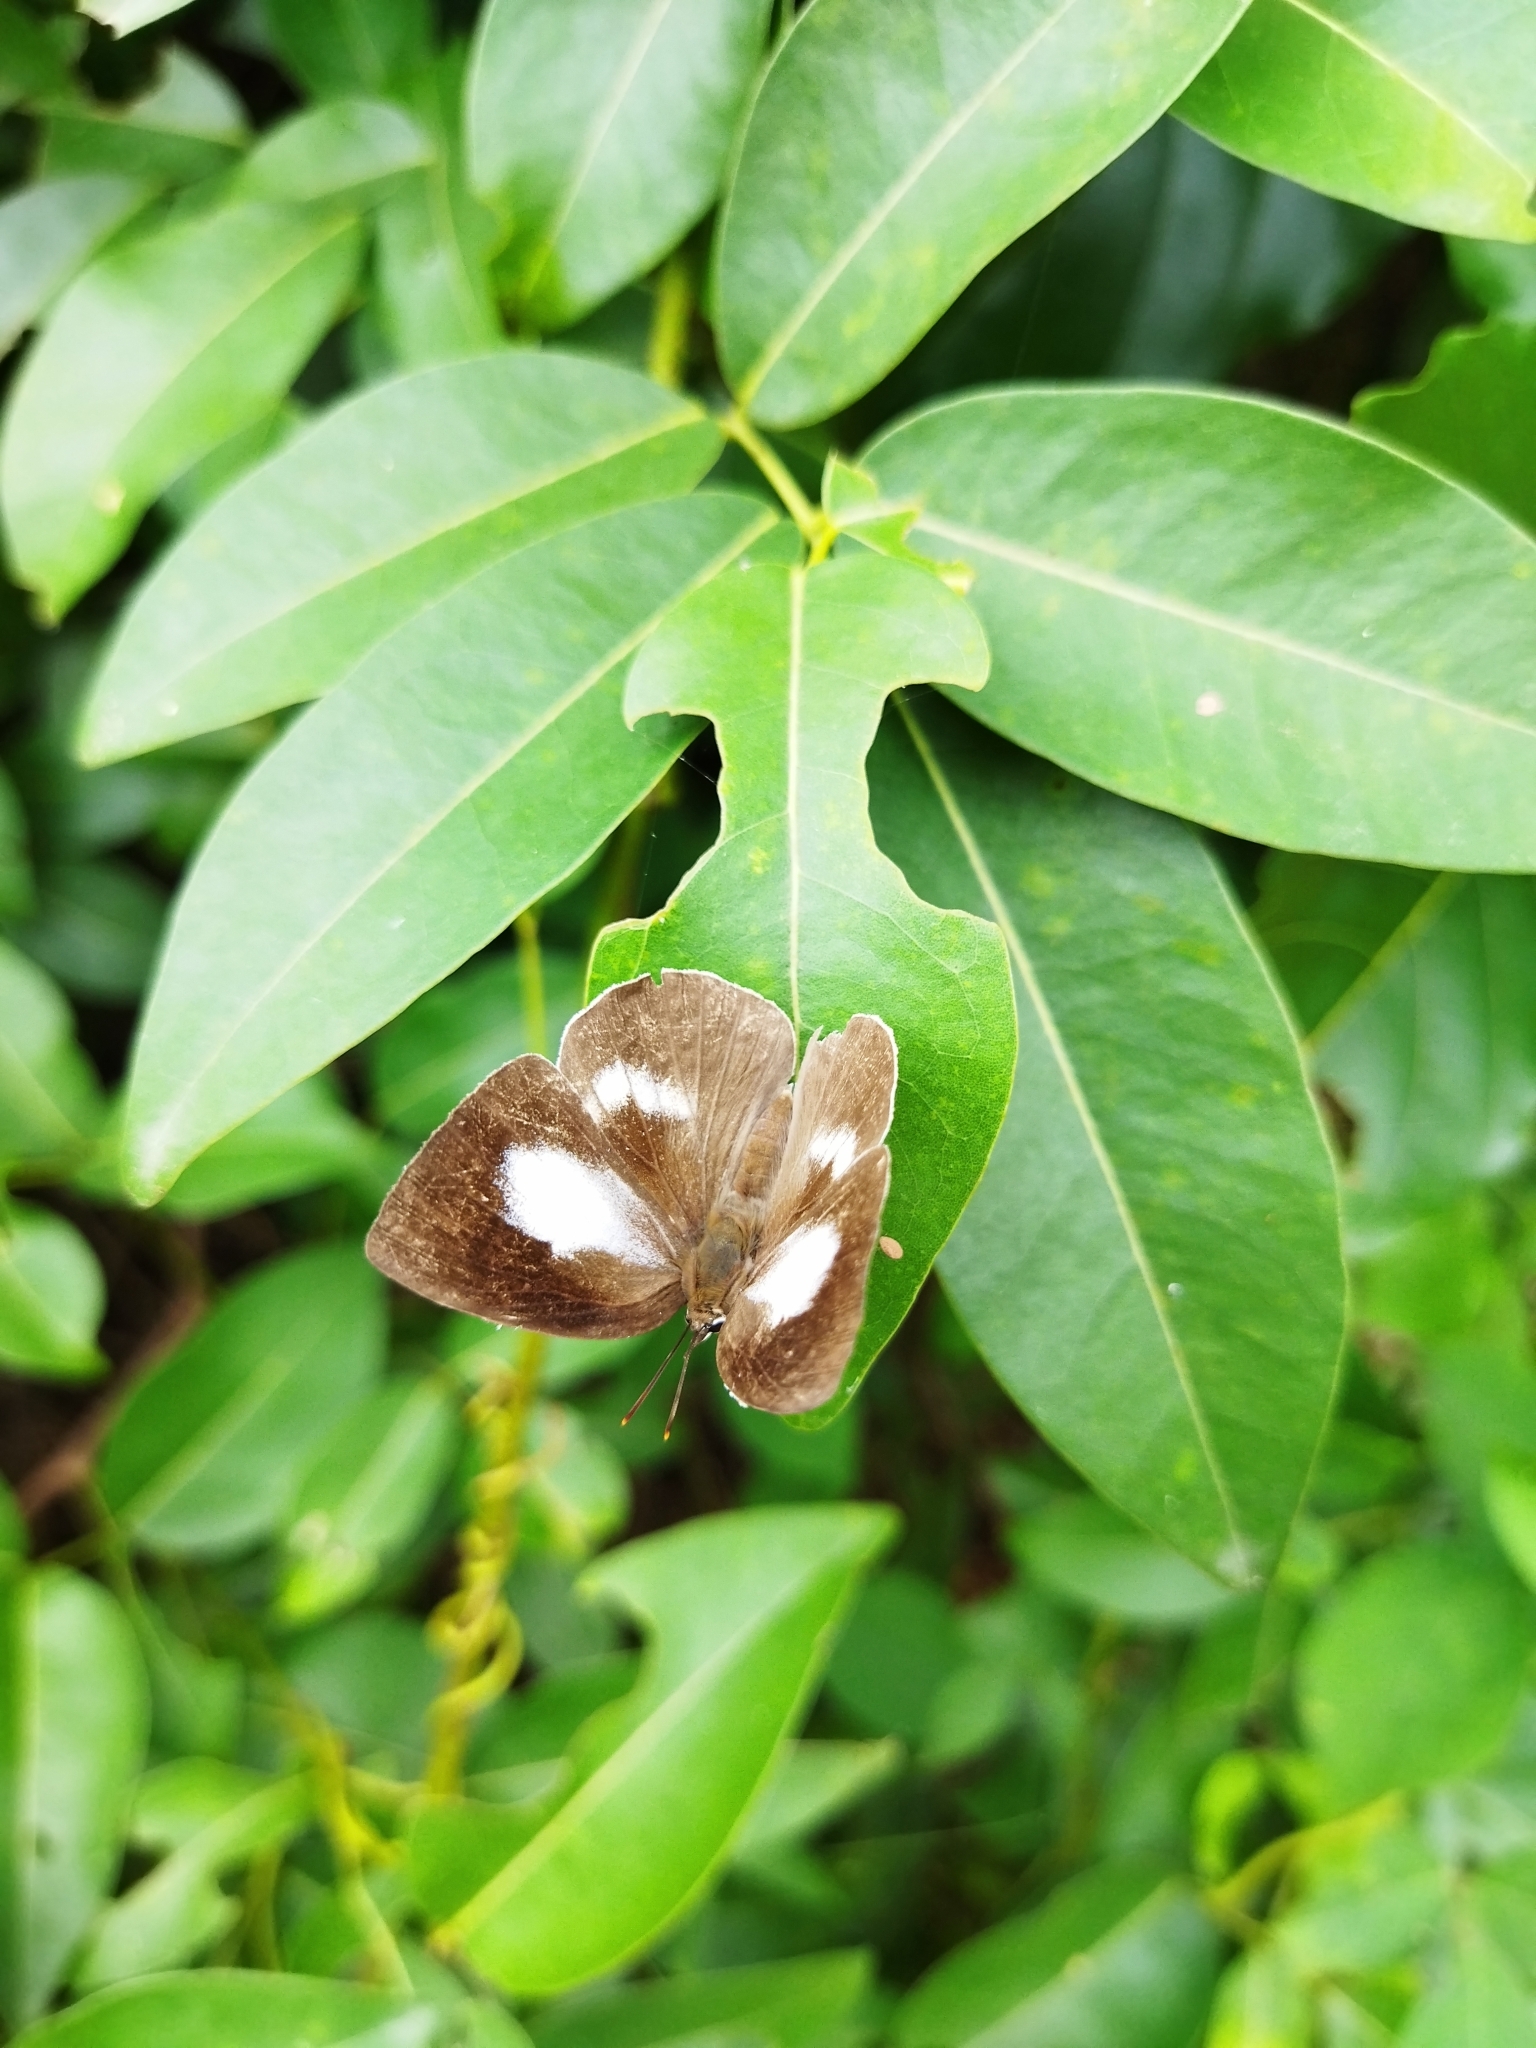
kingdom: Animalia
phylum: Arthropoda
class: Insecta
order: Lepidoptera
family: Lycaenidae
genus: Curetis
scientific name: Curetis thetis
